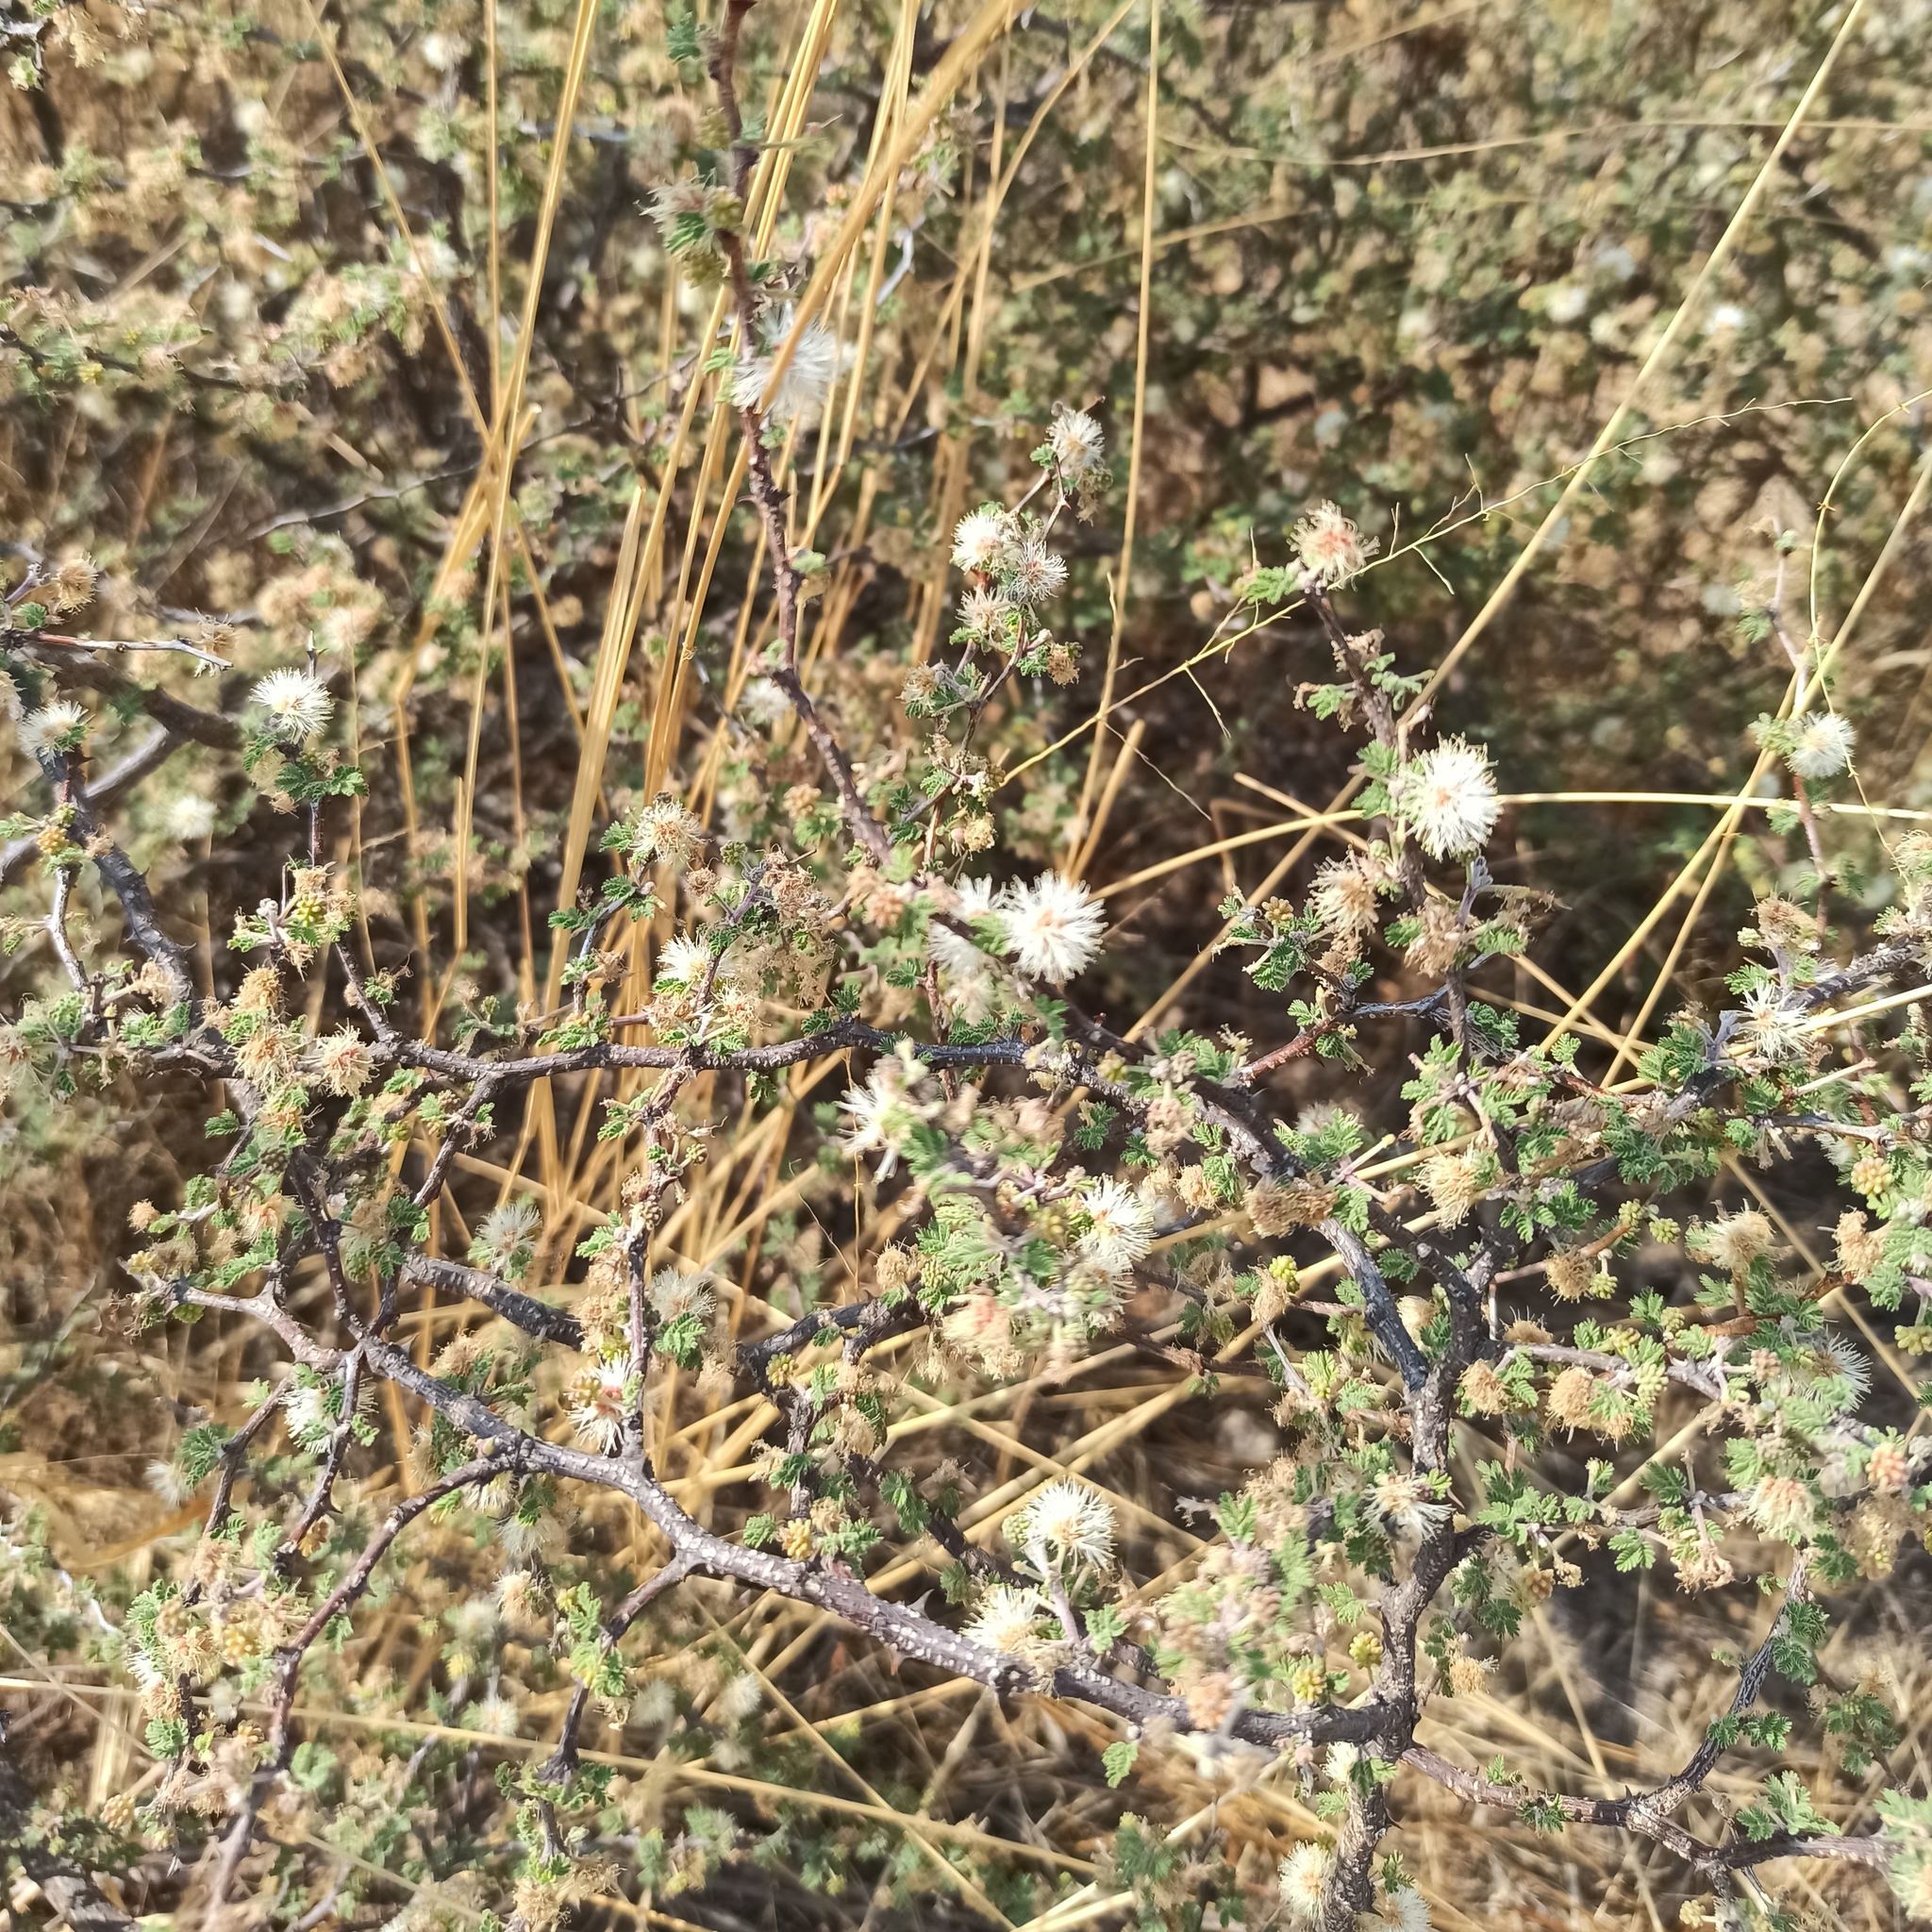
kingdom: Plantae
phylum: Tracheophyta
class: Magnoliopsida
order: Fabales
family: Fabaceae
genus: Mimosa
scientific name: Mimosa aculeaticarpa
